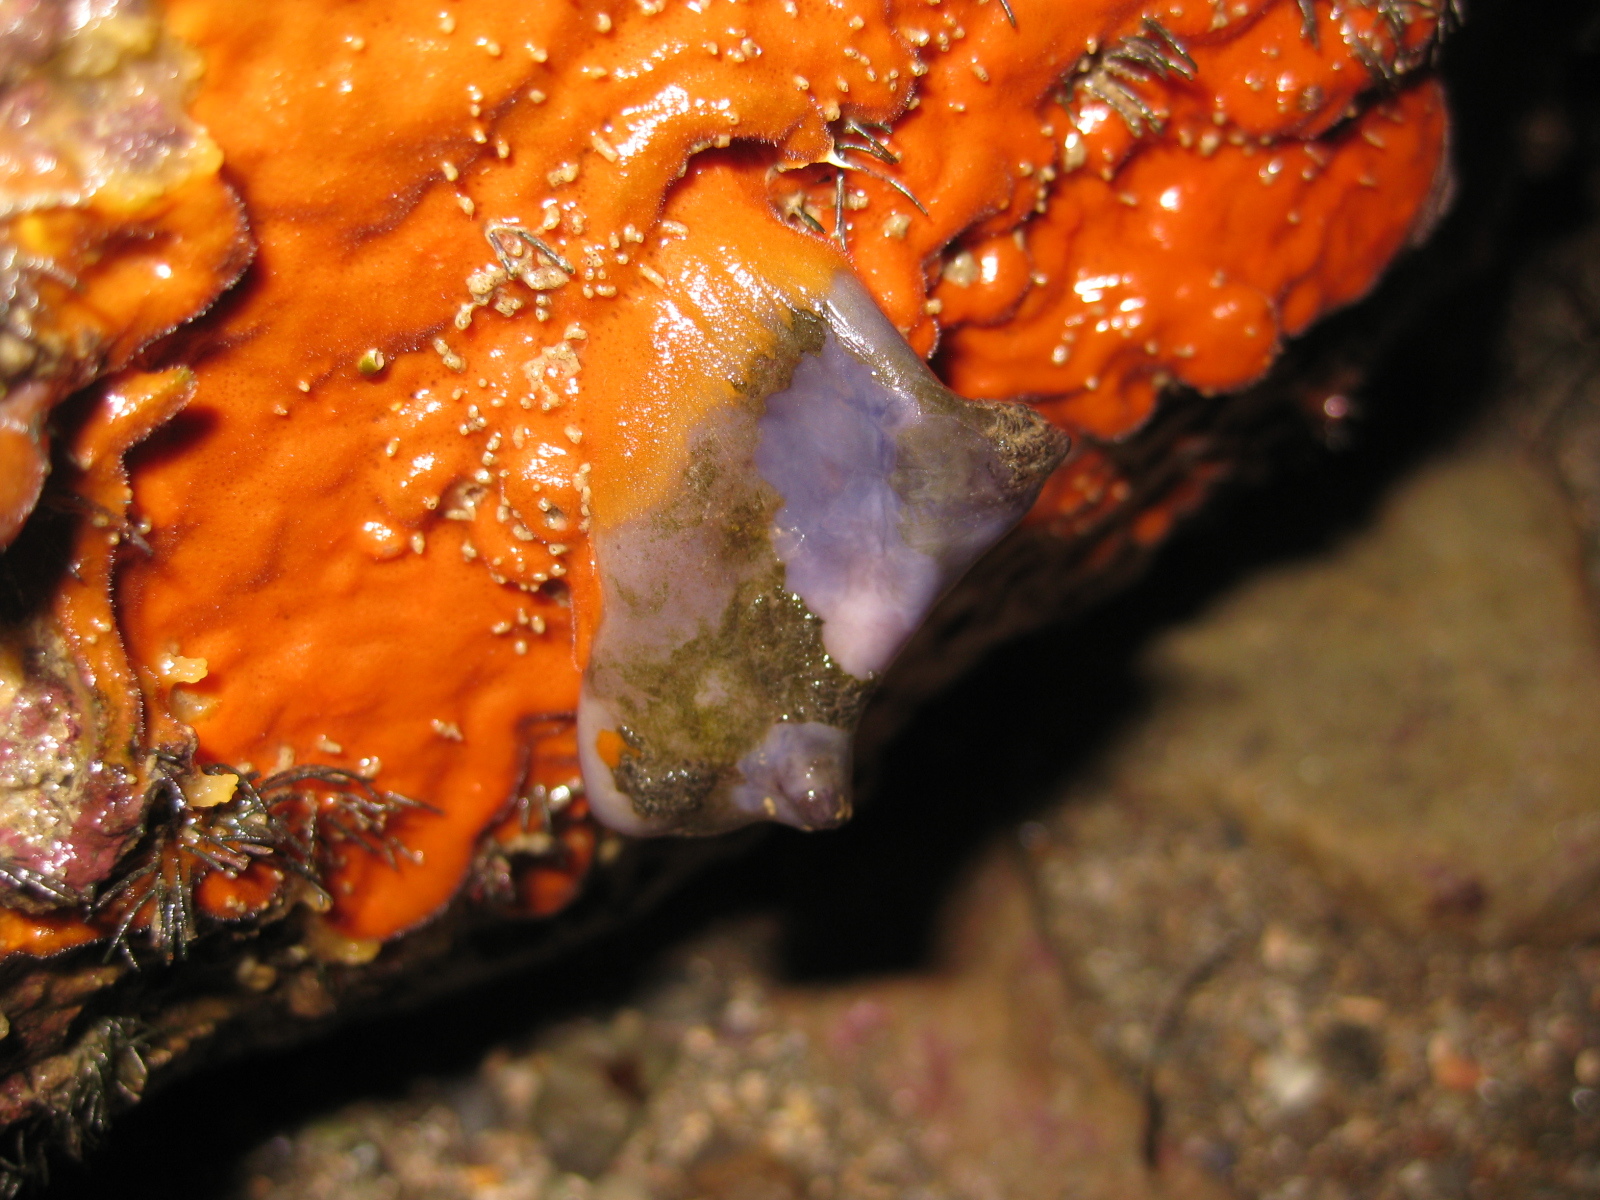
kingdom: Animalia
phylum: Chordata
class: Ascidiacea
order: Stolidobranchia
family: Styelidae
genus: Asterocarpa
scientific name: Asterocarpa coerulea
